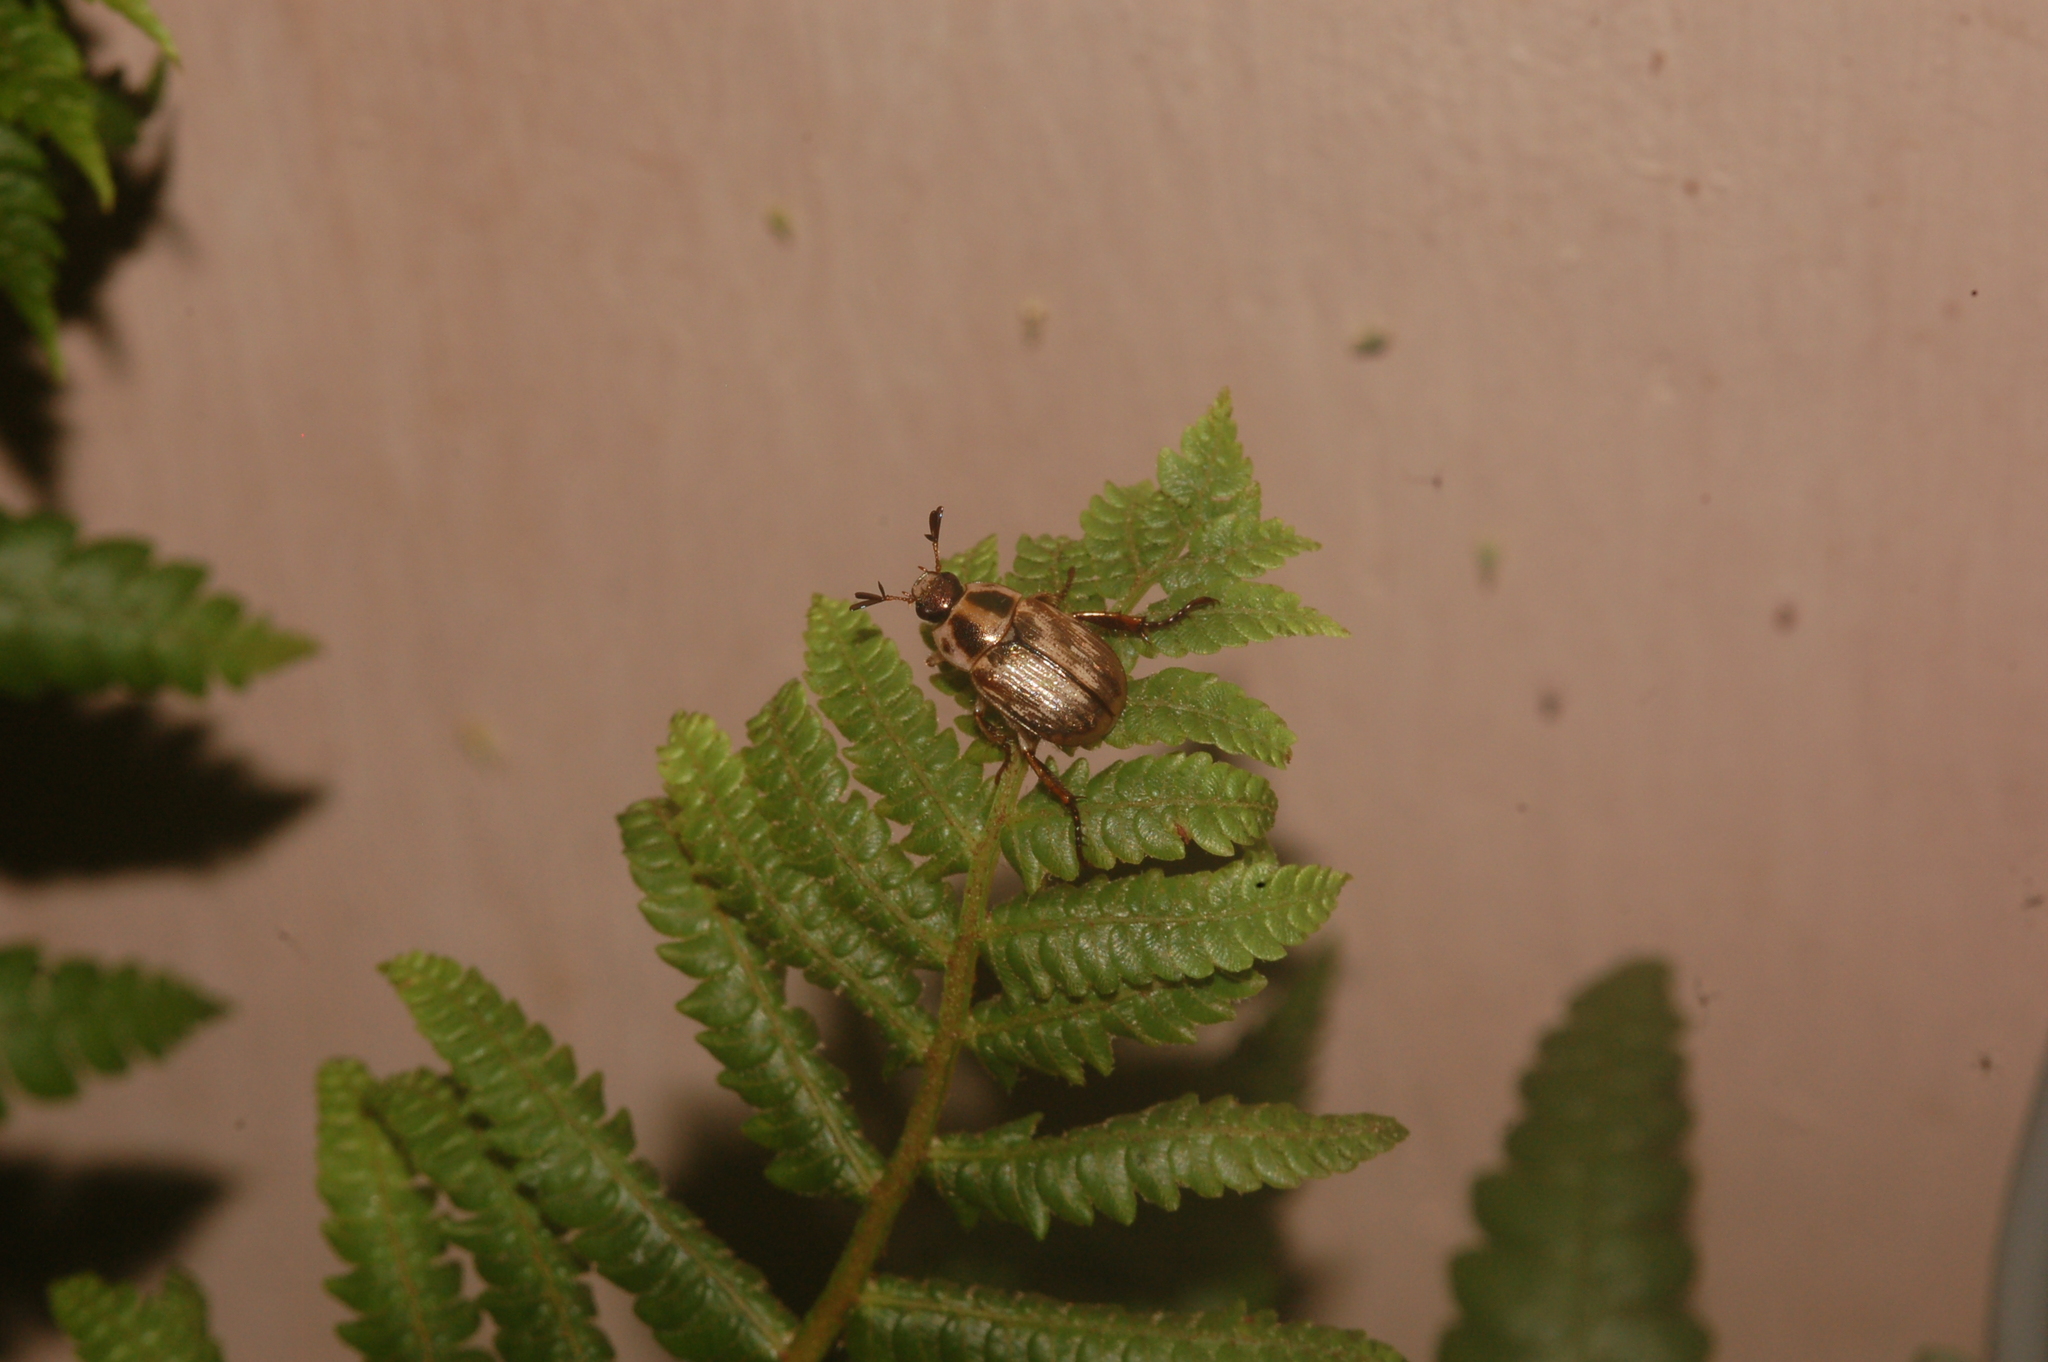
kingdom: Animalia
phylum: Arthropoda
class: Insecta
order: Coleoptera
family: Scarabaeidae
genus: Exomala
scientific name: Exomala orientalis
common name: Oriental beetle
